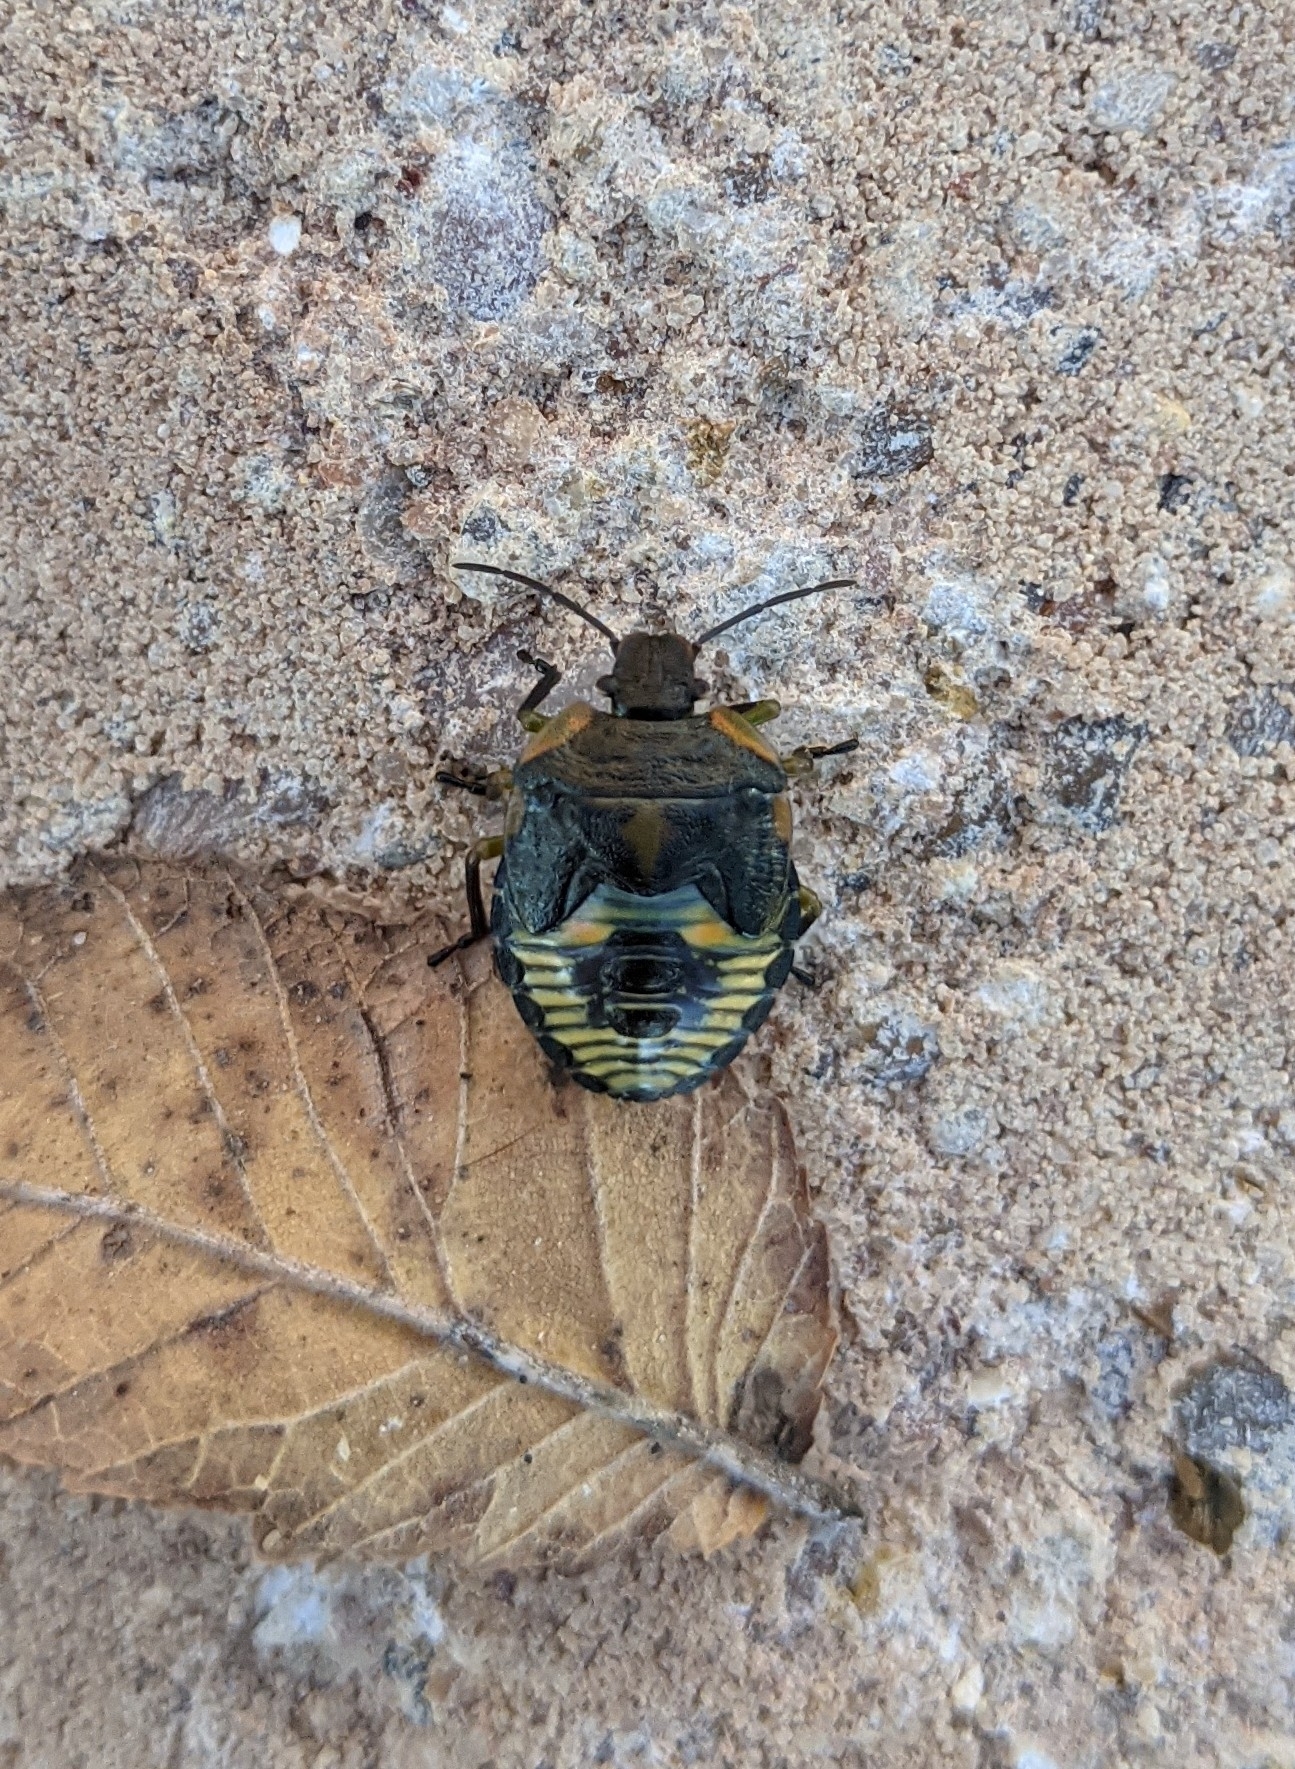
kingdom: Animalia
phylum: Arthropoda
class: Insecta
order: Hemiptera
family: Pentatomidae
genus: Chinavia
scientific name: Chinavia hilaris
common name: Green stink bug
